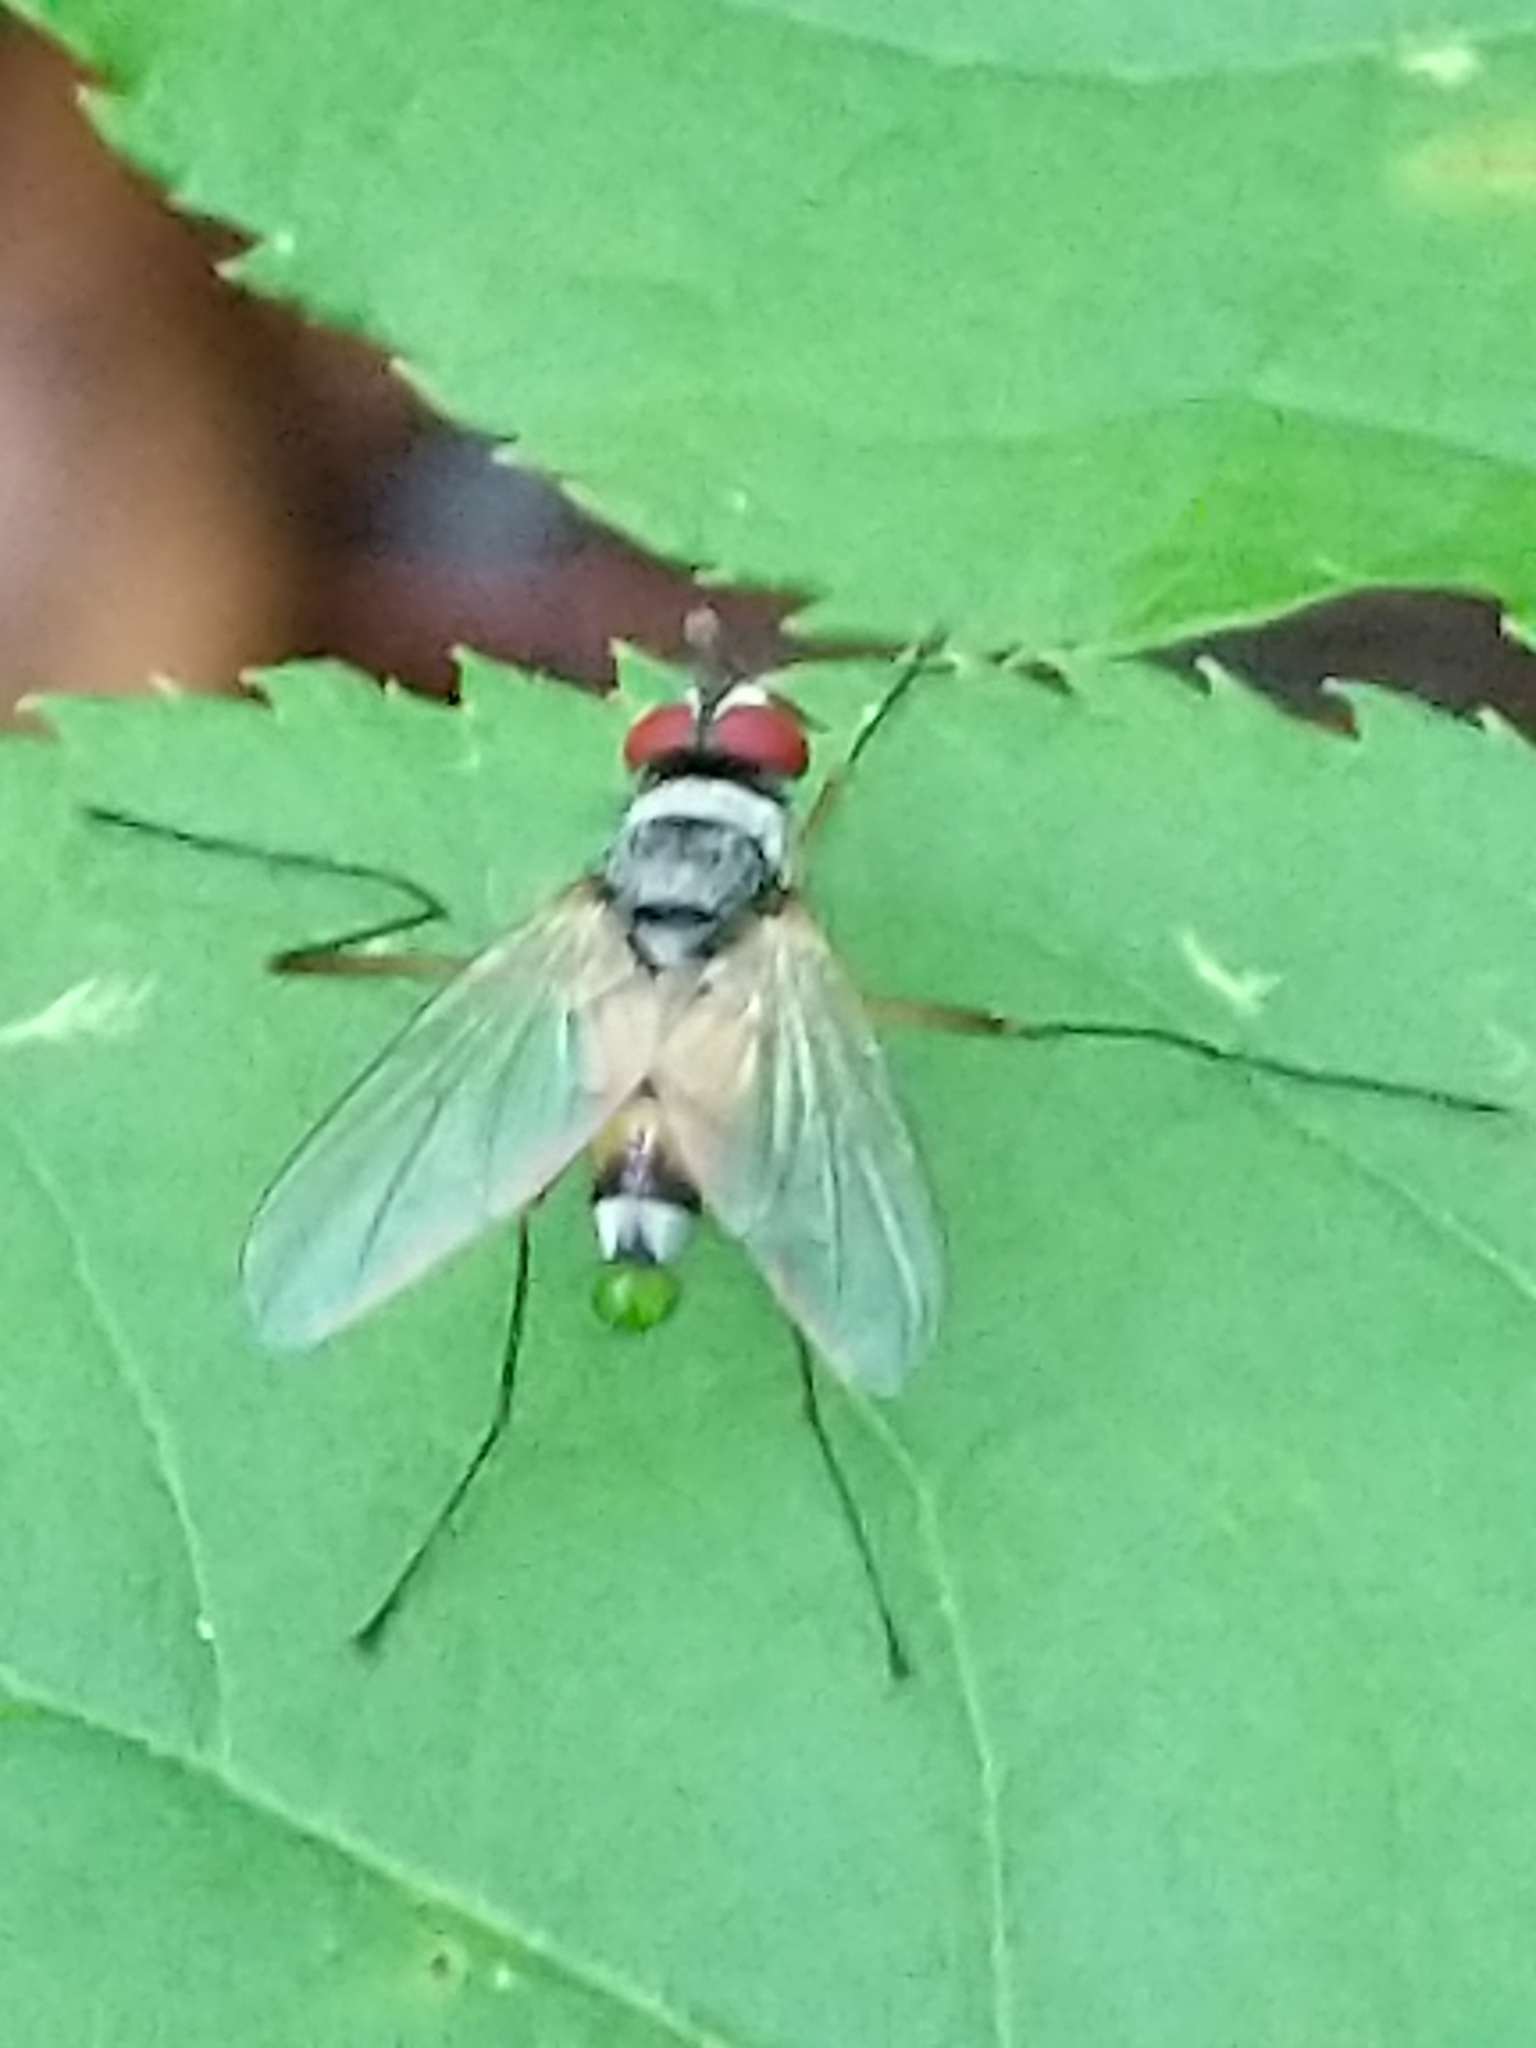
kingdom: Animalia
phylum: Arthropoda
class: Insecta
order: Diptera
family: Tachinidae
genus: Cholomyia
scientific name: Cholomyia inaequipes
